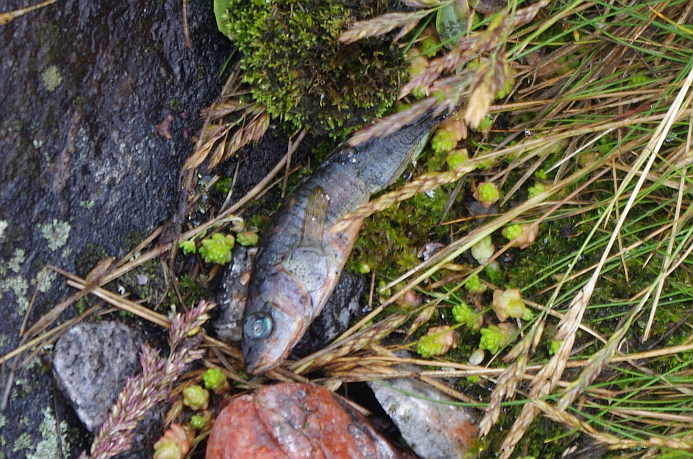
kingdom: Animalia
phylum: Chordata
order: Gasterosteiformes
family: Gasterosteidae
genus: Gasterosteus
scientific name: Gasterosteus aculeatus
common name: Three-spined stickleback
